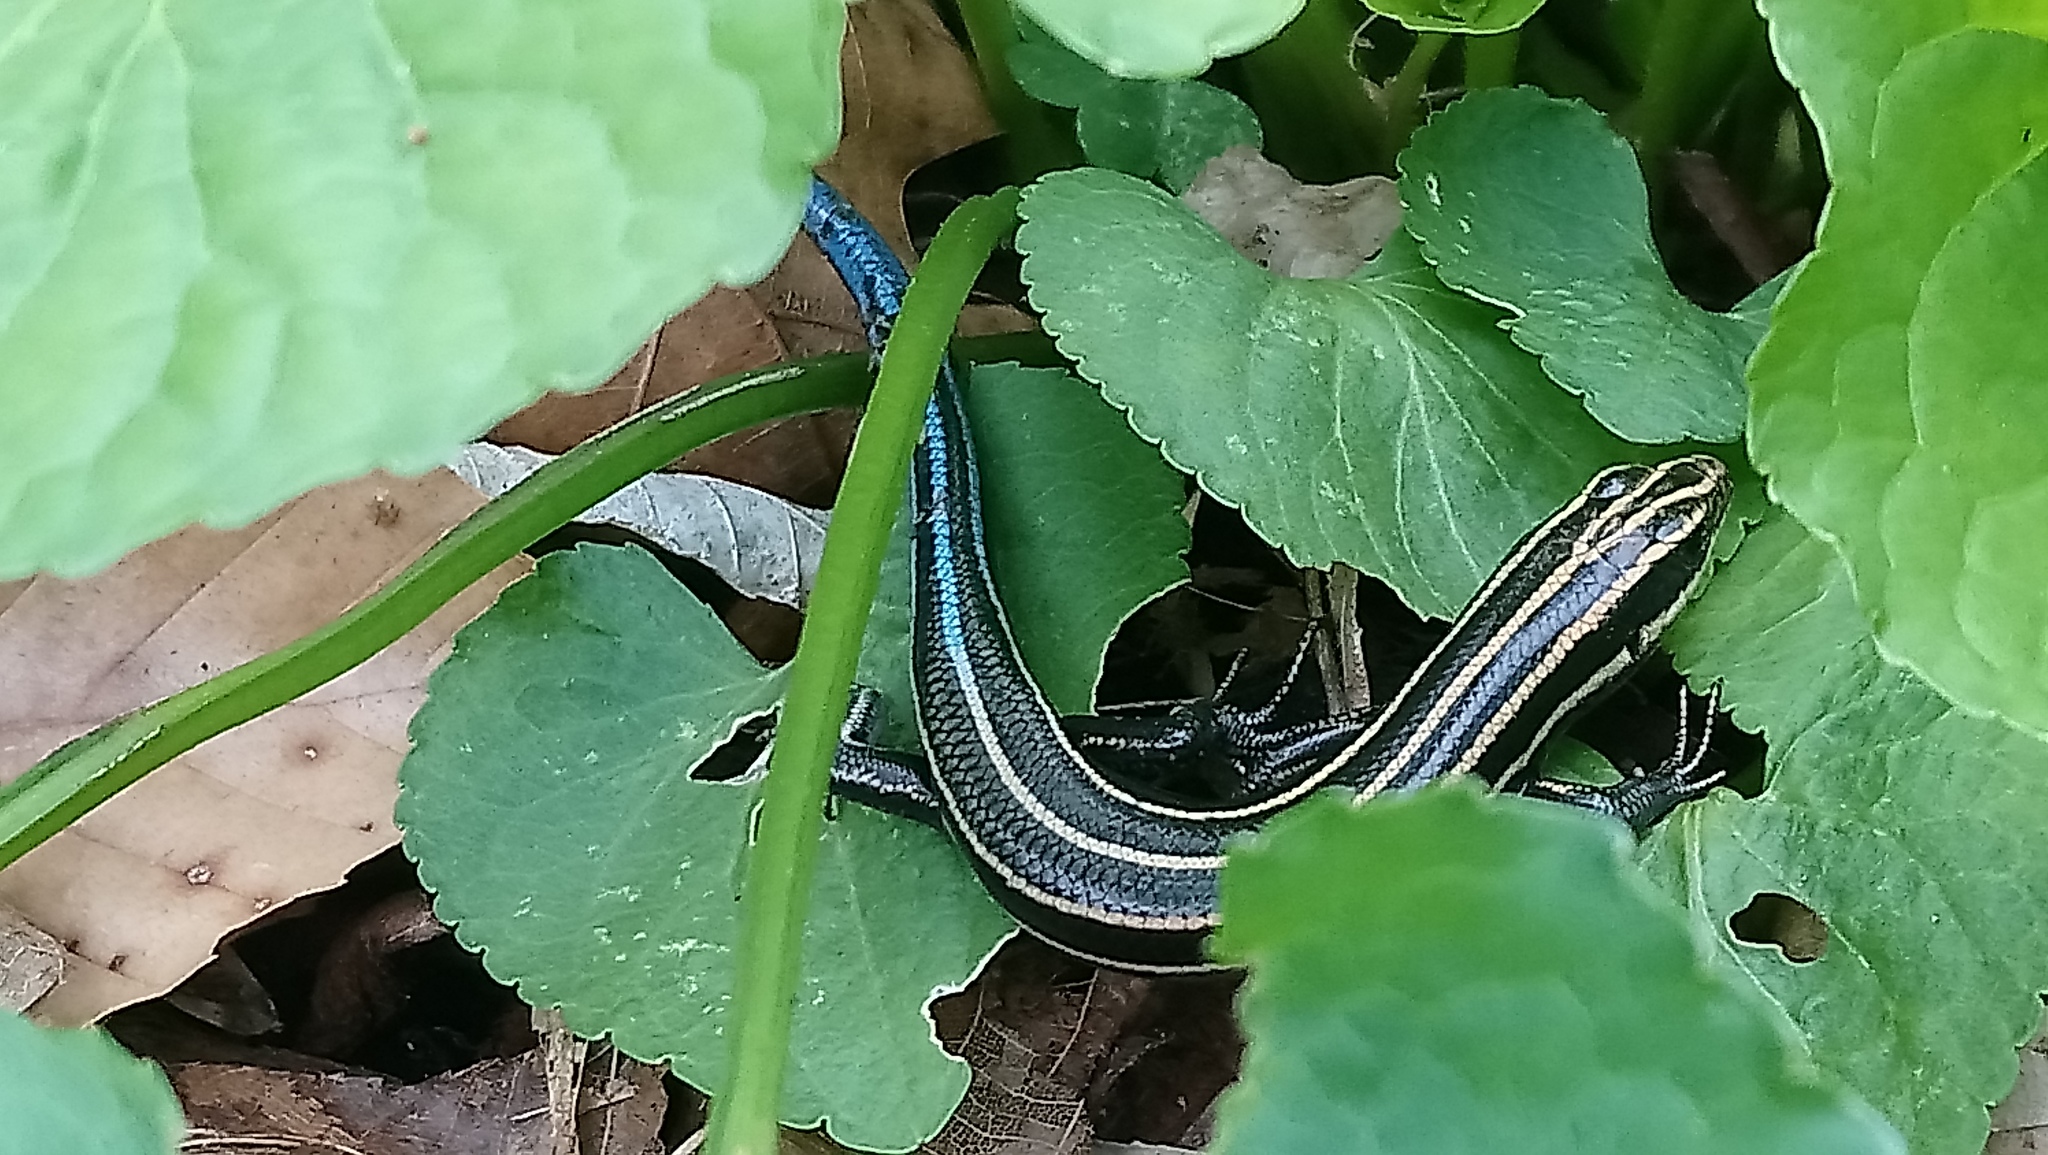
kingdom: Animalia
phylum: Chordata
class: Squamata
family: Scincidae
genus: Plestiodon
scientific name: Plestiodon fasciatus
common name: Five-lined skink
